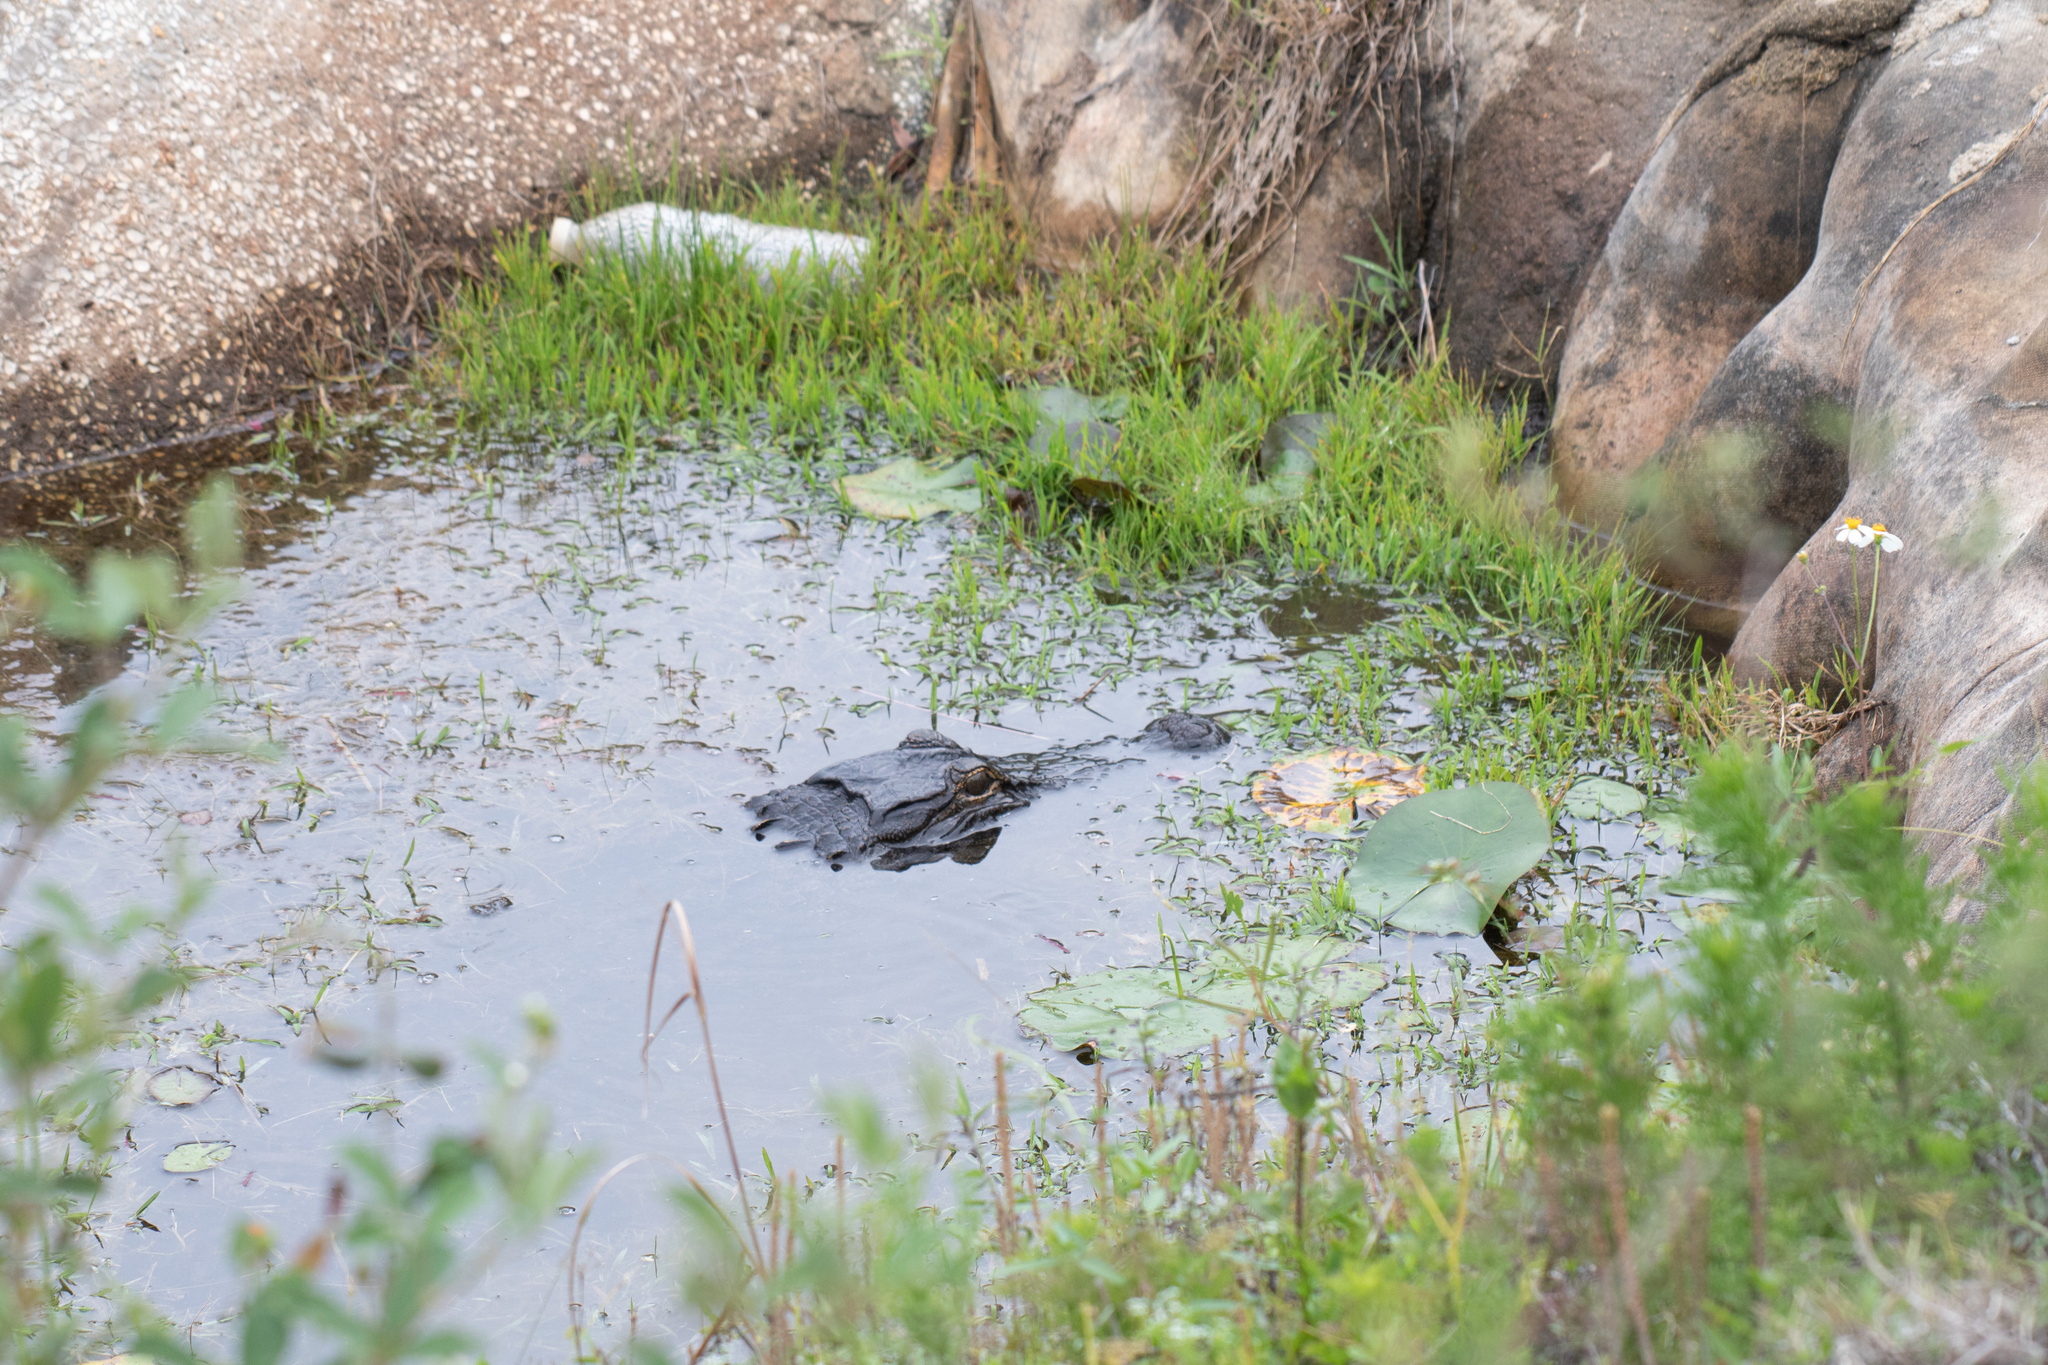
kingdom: Animalia
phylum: Chordata
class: Crocodylia
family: Alligatoridae
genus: Alligator
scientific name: Alligator mississippiensis
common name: American alligator
